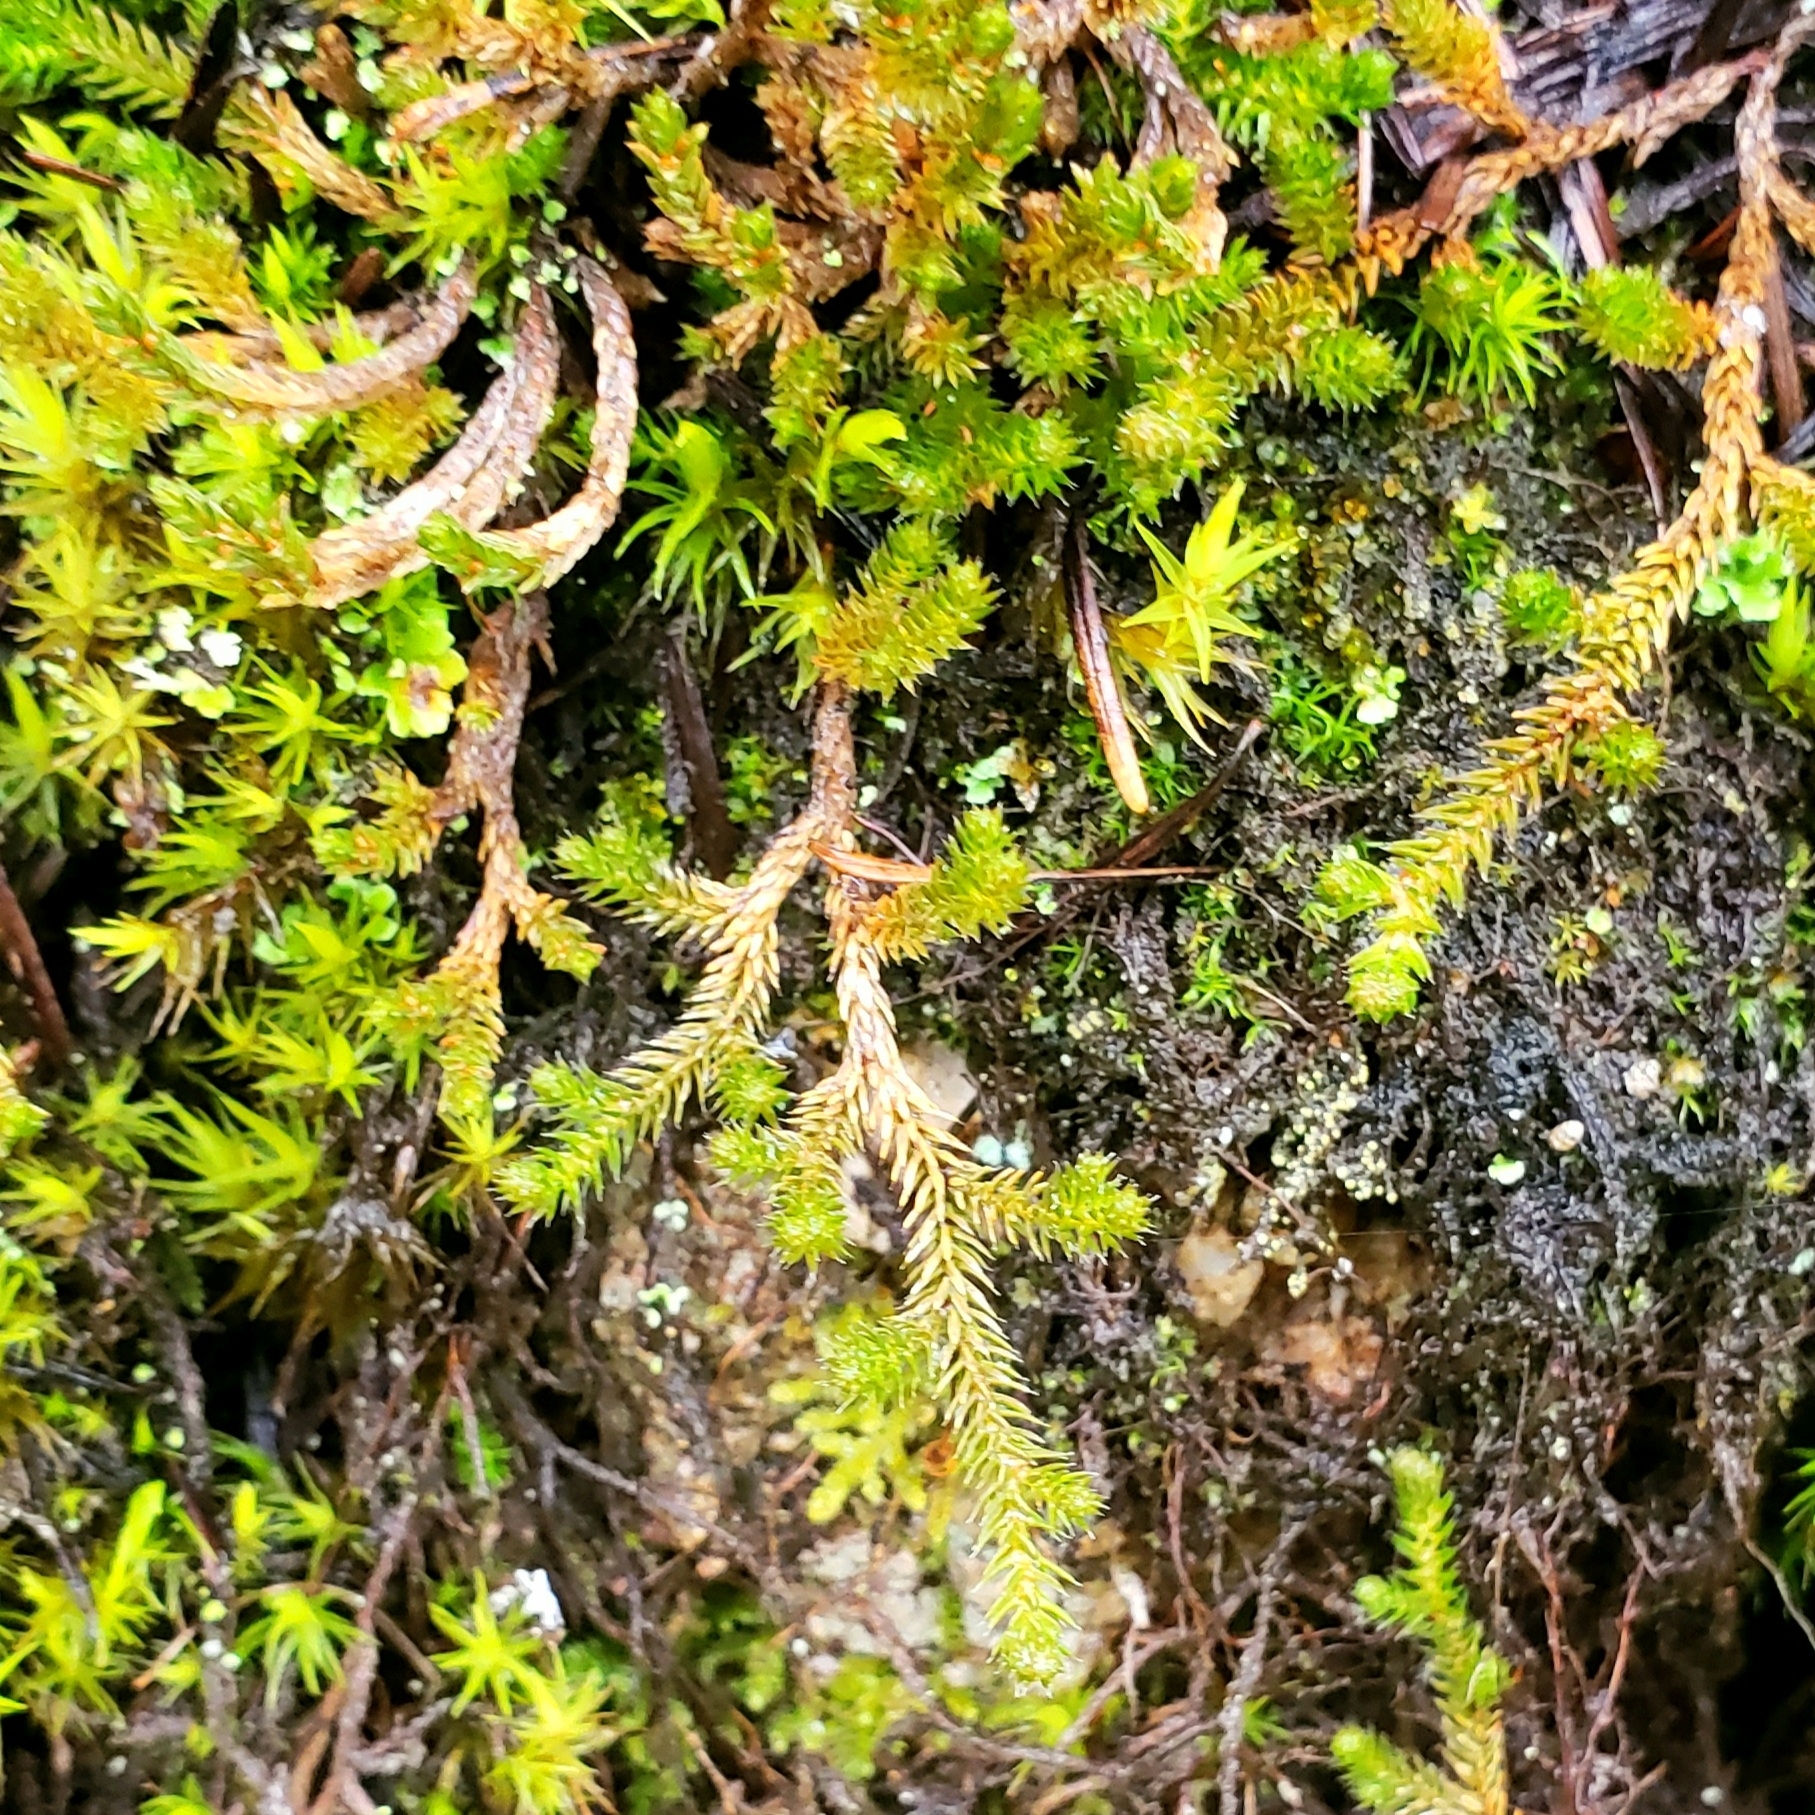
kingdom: Plantae
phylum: Tracheophyta
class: Lycopodiopsida
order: Selaginellales
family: Selaginellaceae
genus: Selaginella
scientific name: Selaginella wallacei
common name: Wallace's selaginella
